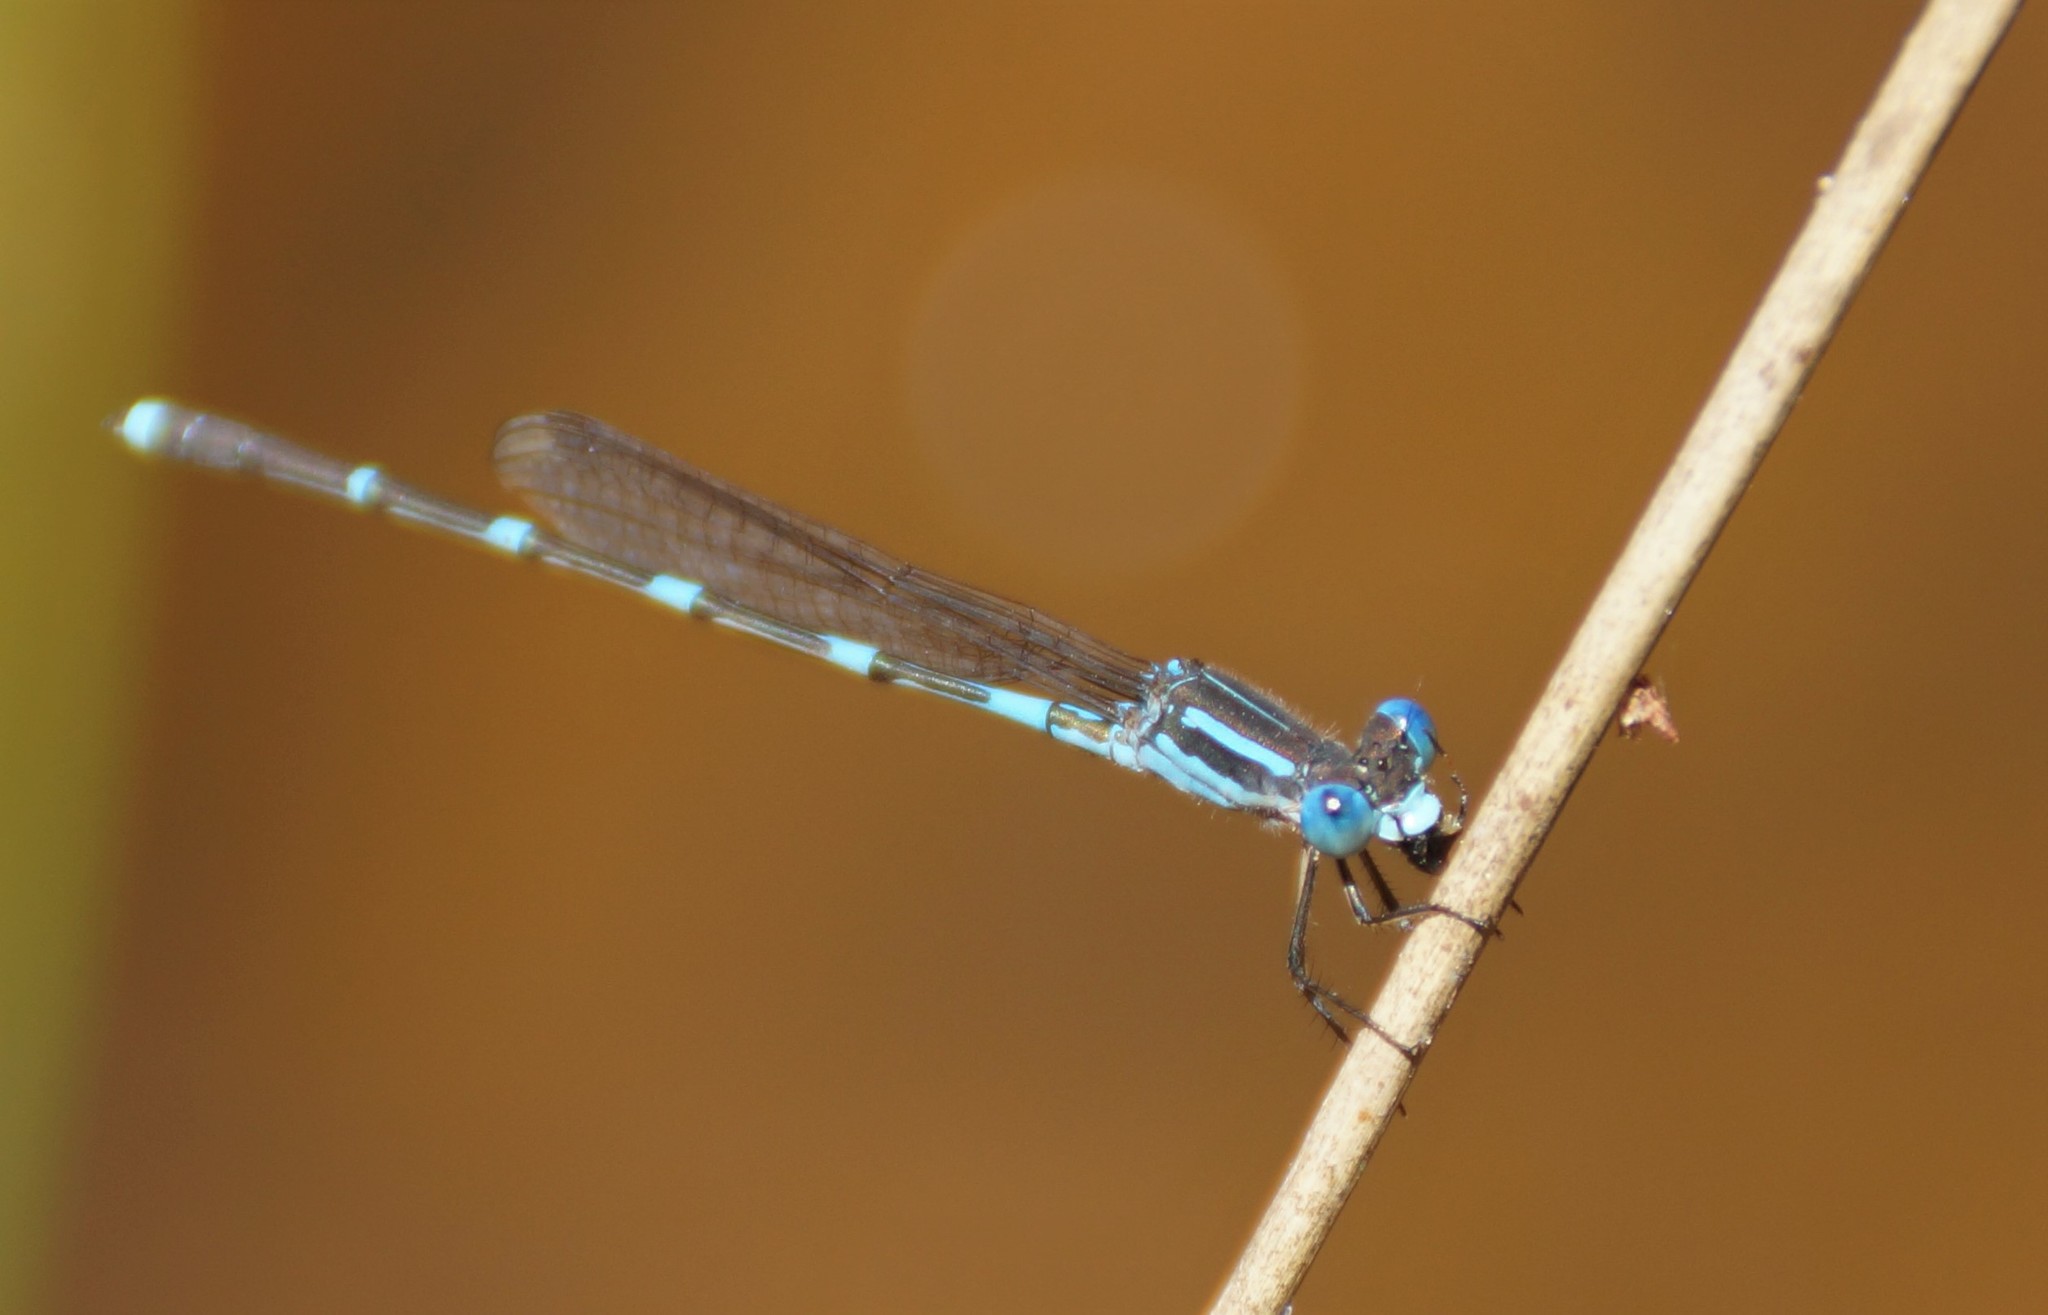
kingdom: Animalia
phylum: Arthropoda
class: Insecta
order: Odonata
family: Lestidae
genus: Austrolestes
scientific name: Austrolestes leda
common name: Wandering ringtail
